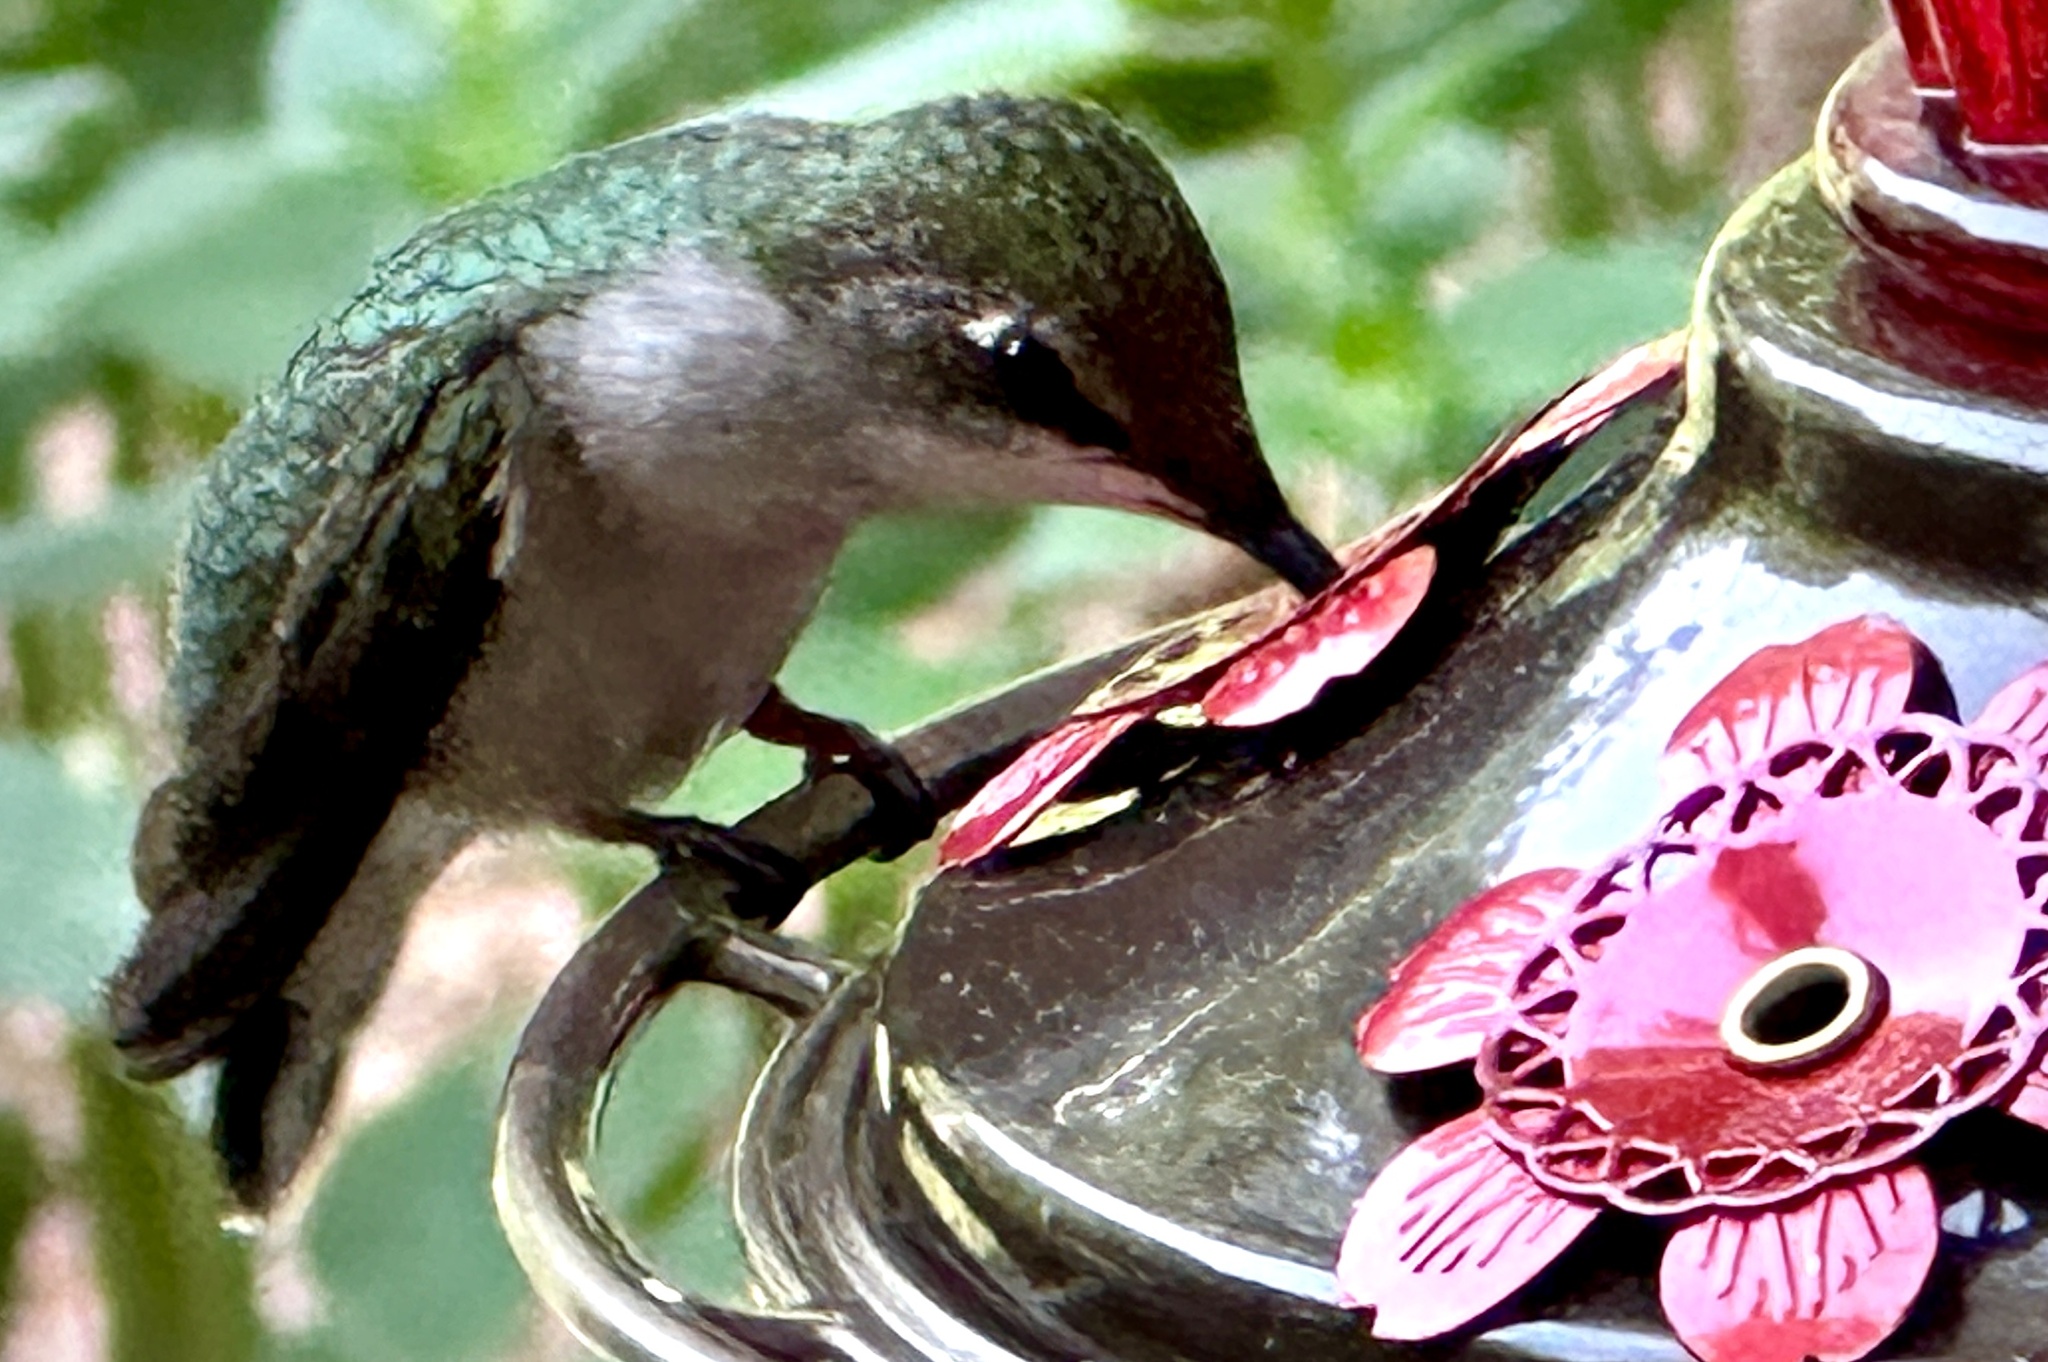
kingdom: Animalia
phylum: Chordata
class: Aves
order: Apodiformes
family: Trochilidae
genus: Archilochus
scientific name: Archilochus colubris
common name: Ruby-throated hummingbird
